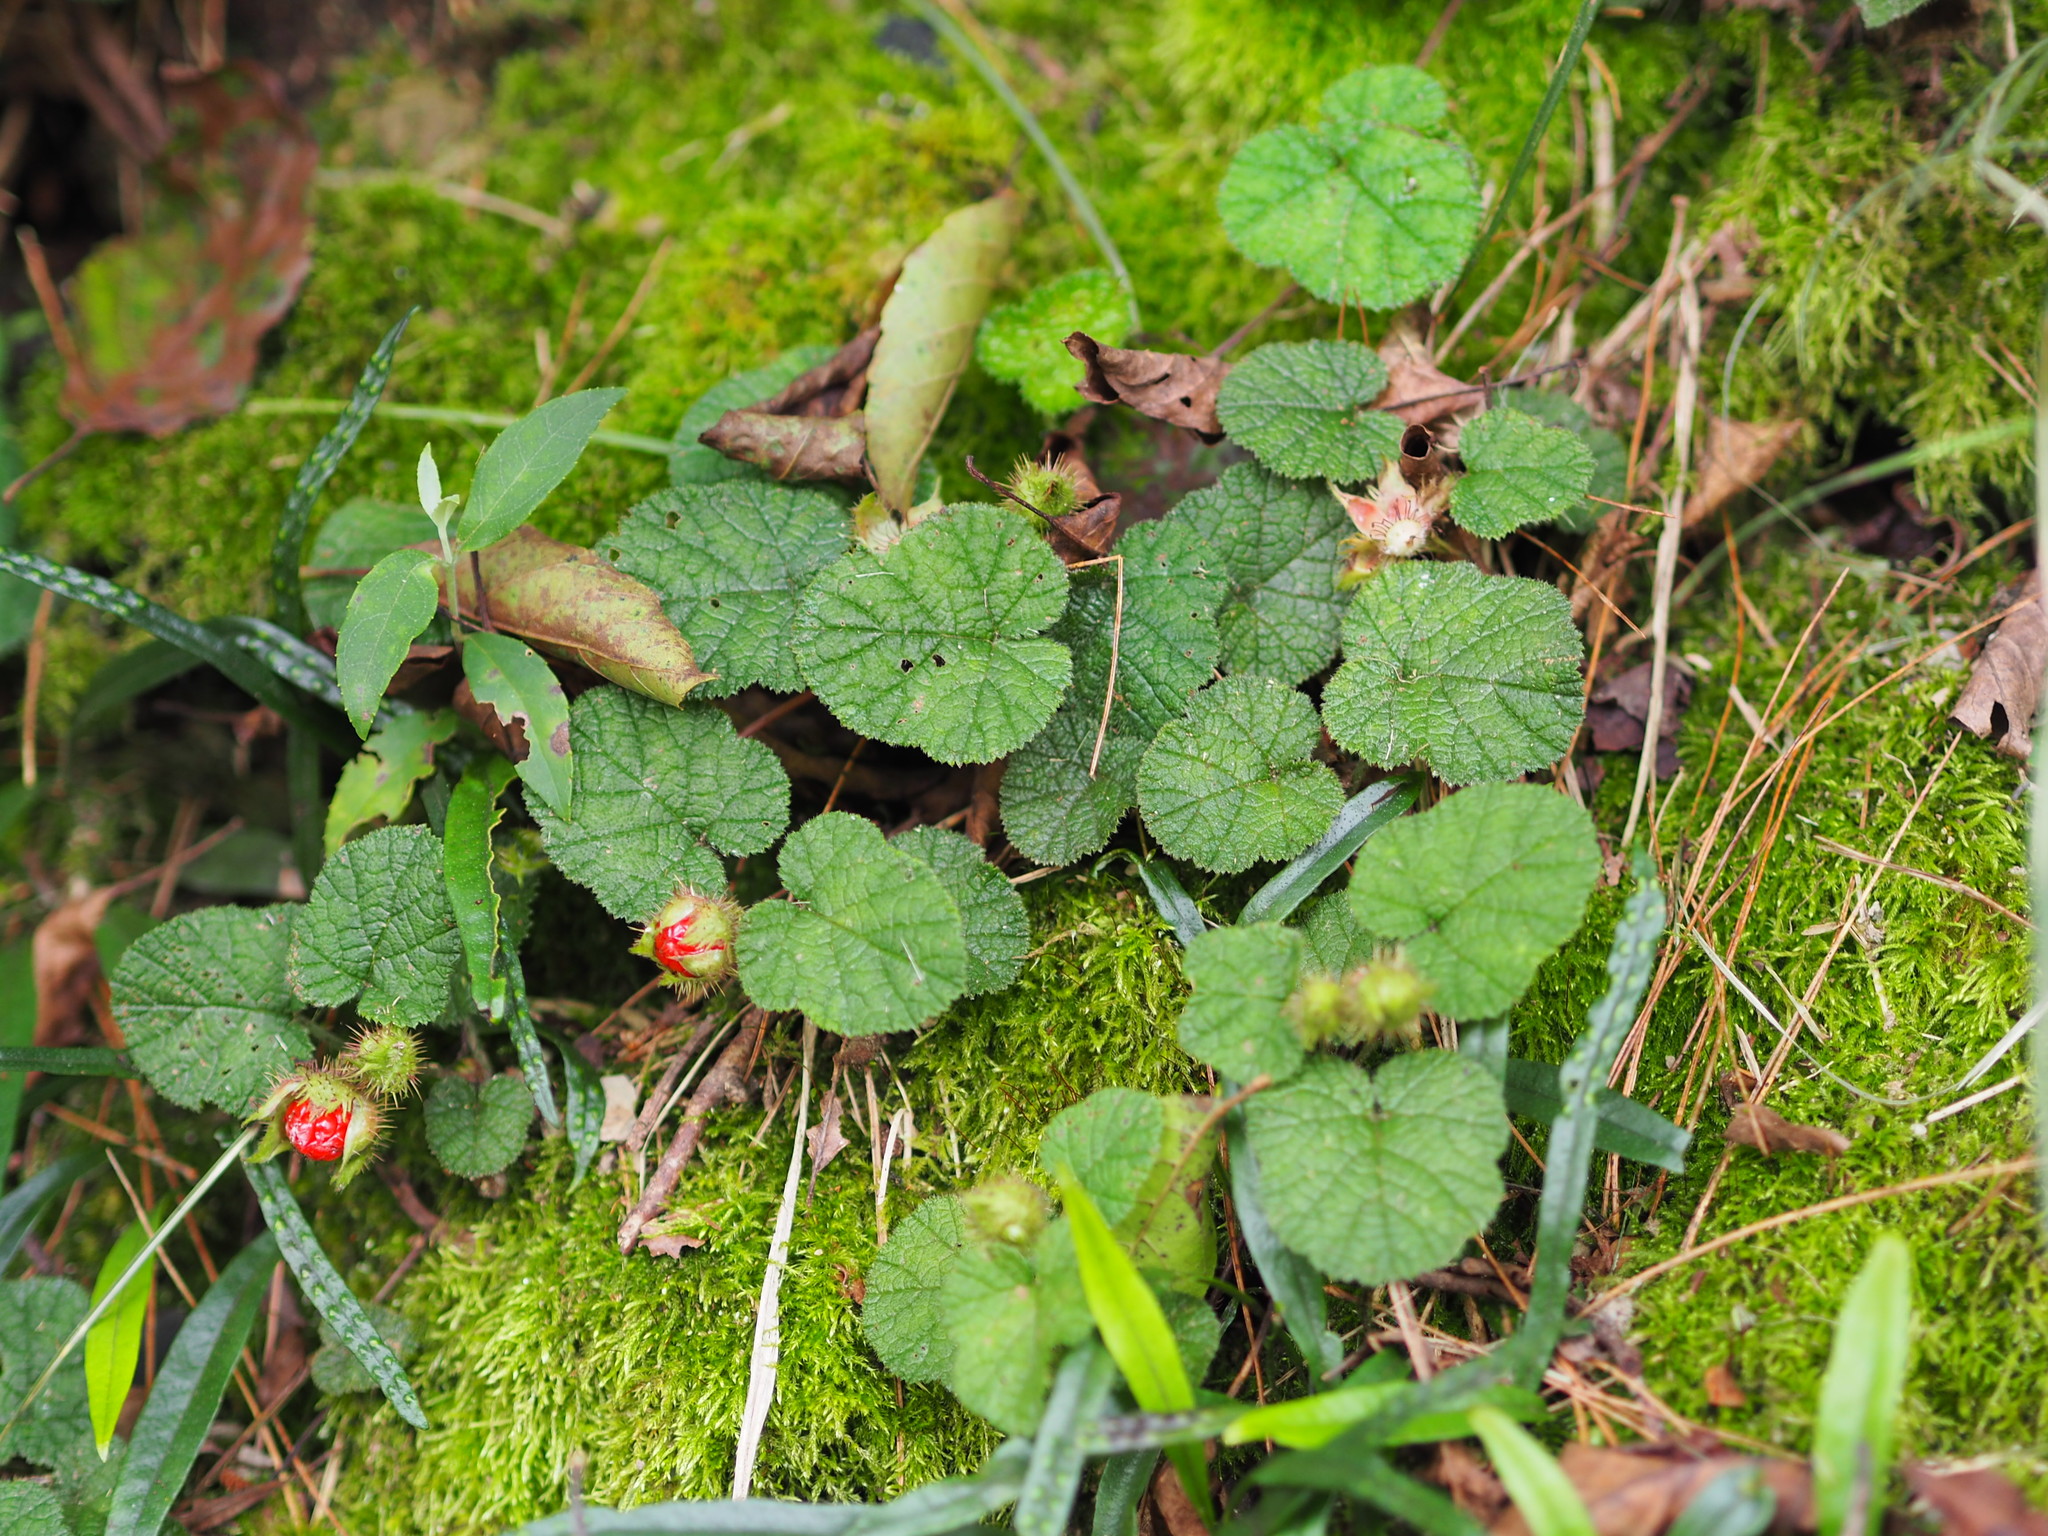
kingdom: Plantae
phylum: Tracheophyta
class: Magnoliopsida
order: Rosales
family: Rosaceae
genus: Rubus
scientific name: Rubus pectinellus
